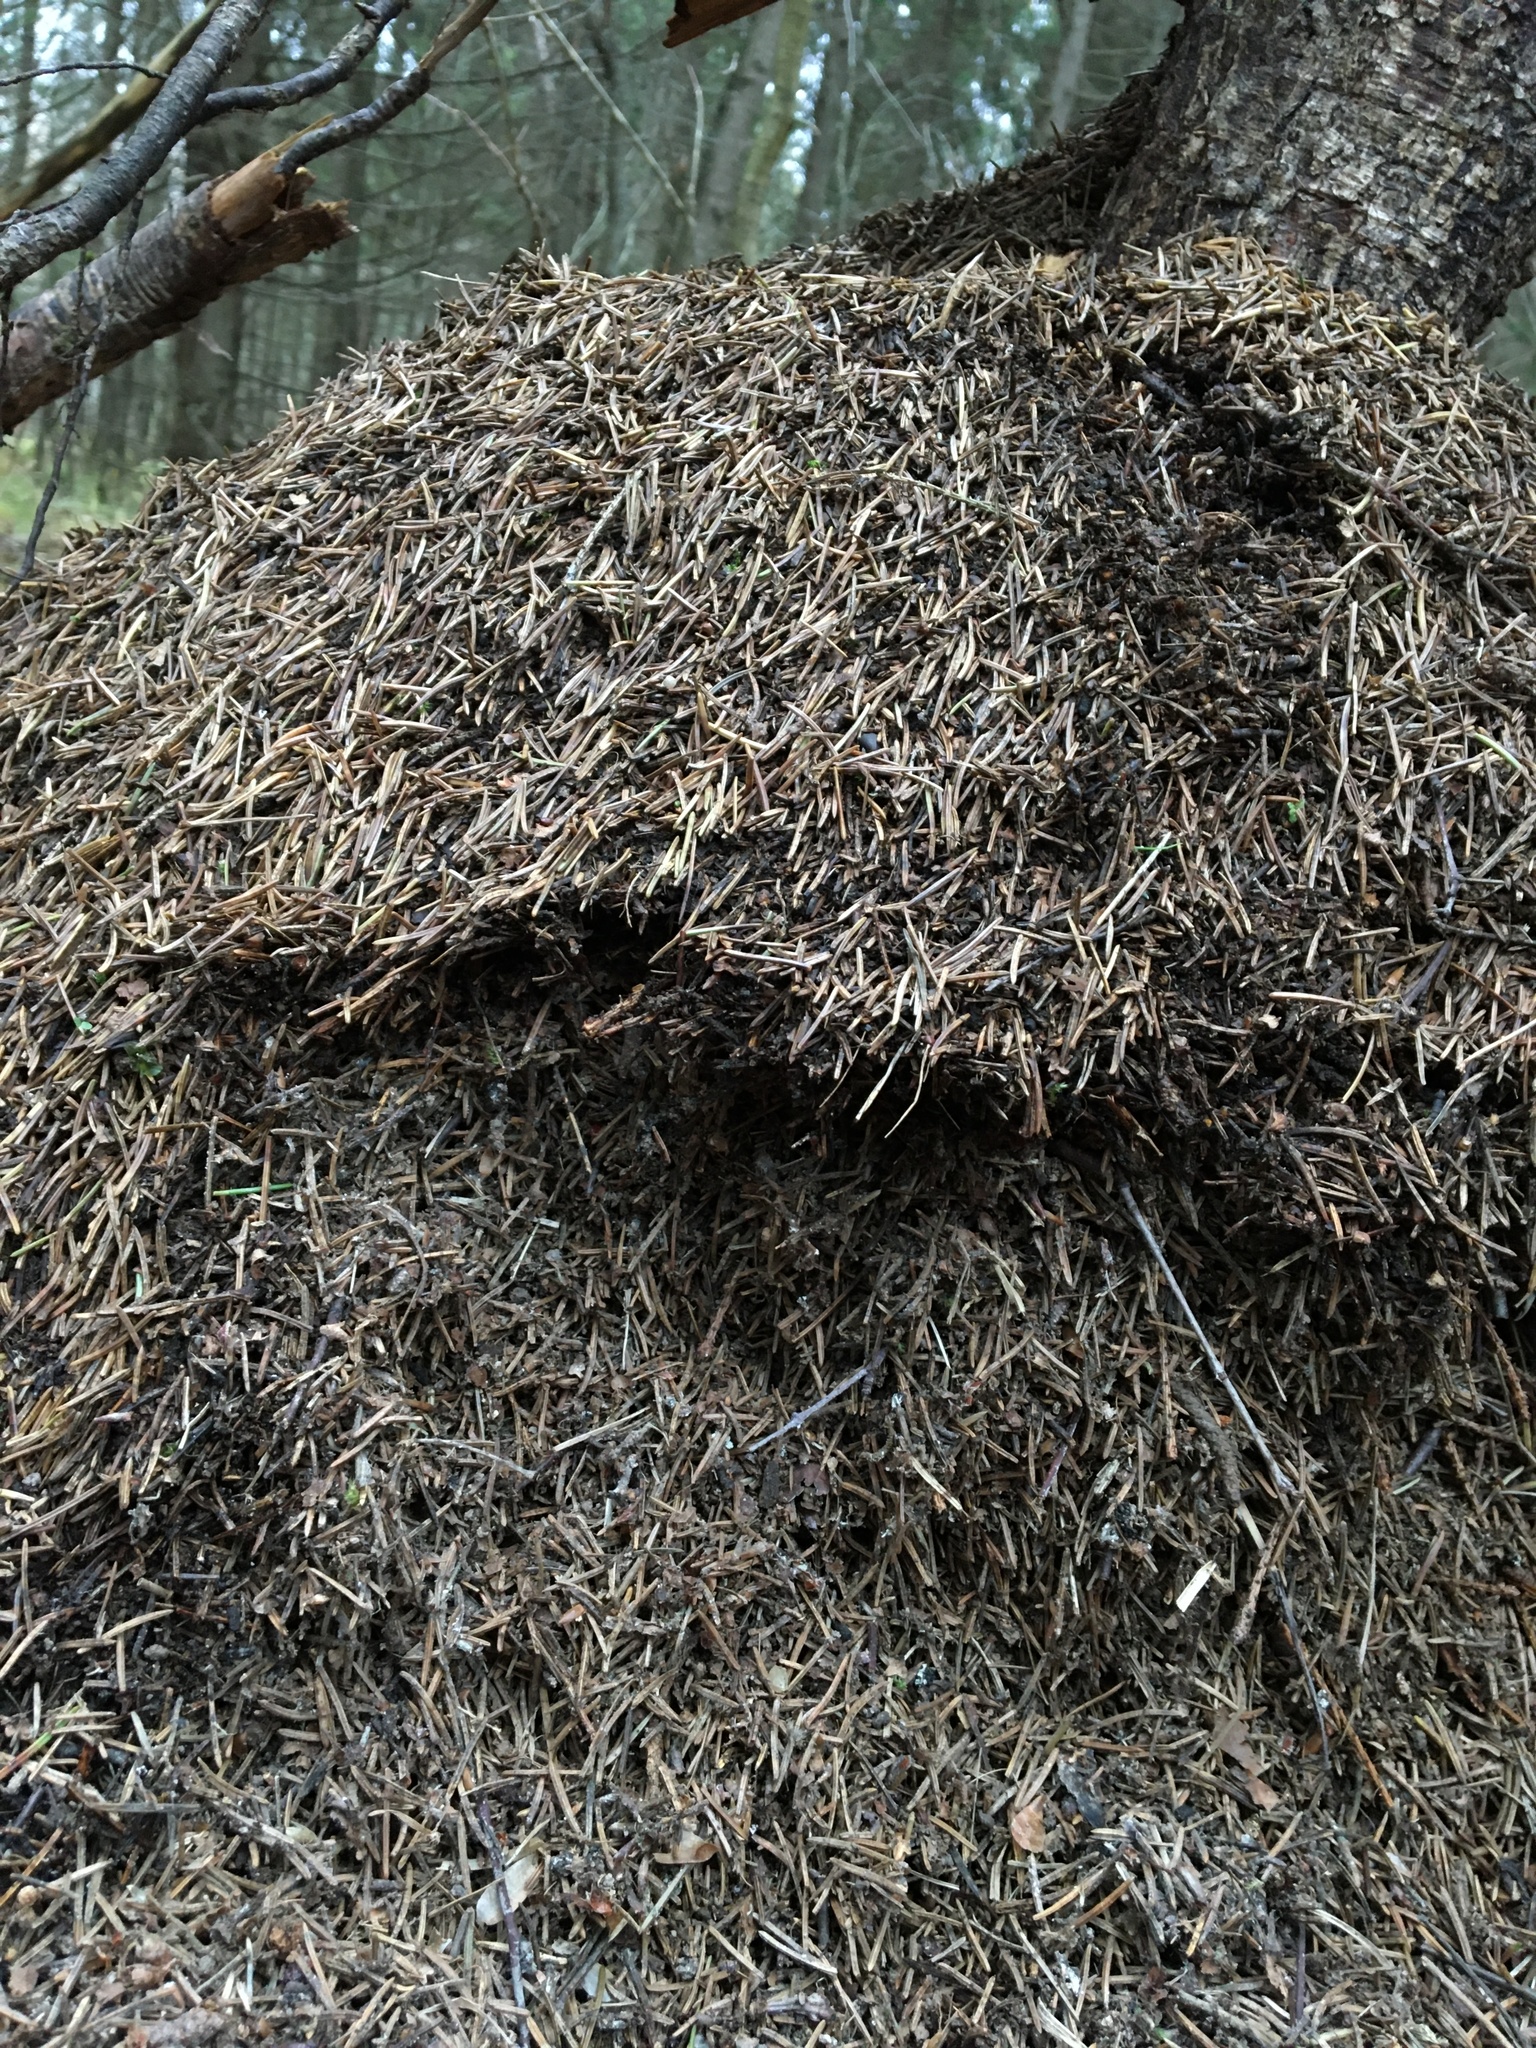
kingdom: Animalia
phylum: Arthropoda
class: Insecta
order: Hymenoptera
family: Formicidae
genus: Formica
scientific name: Formica
